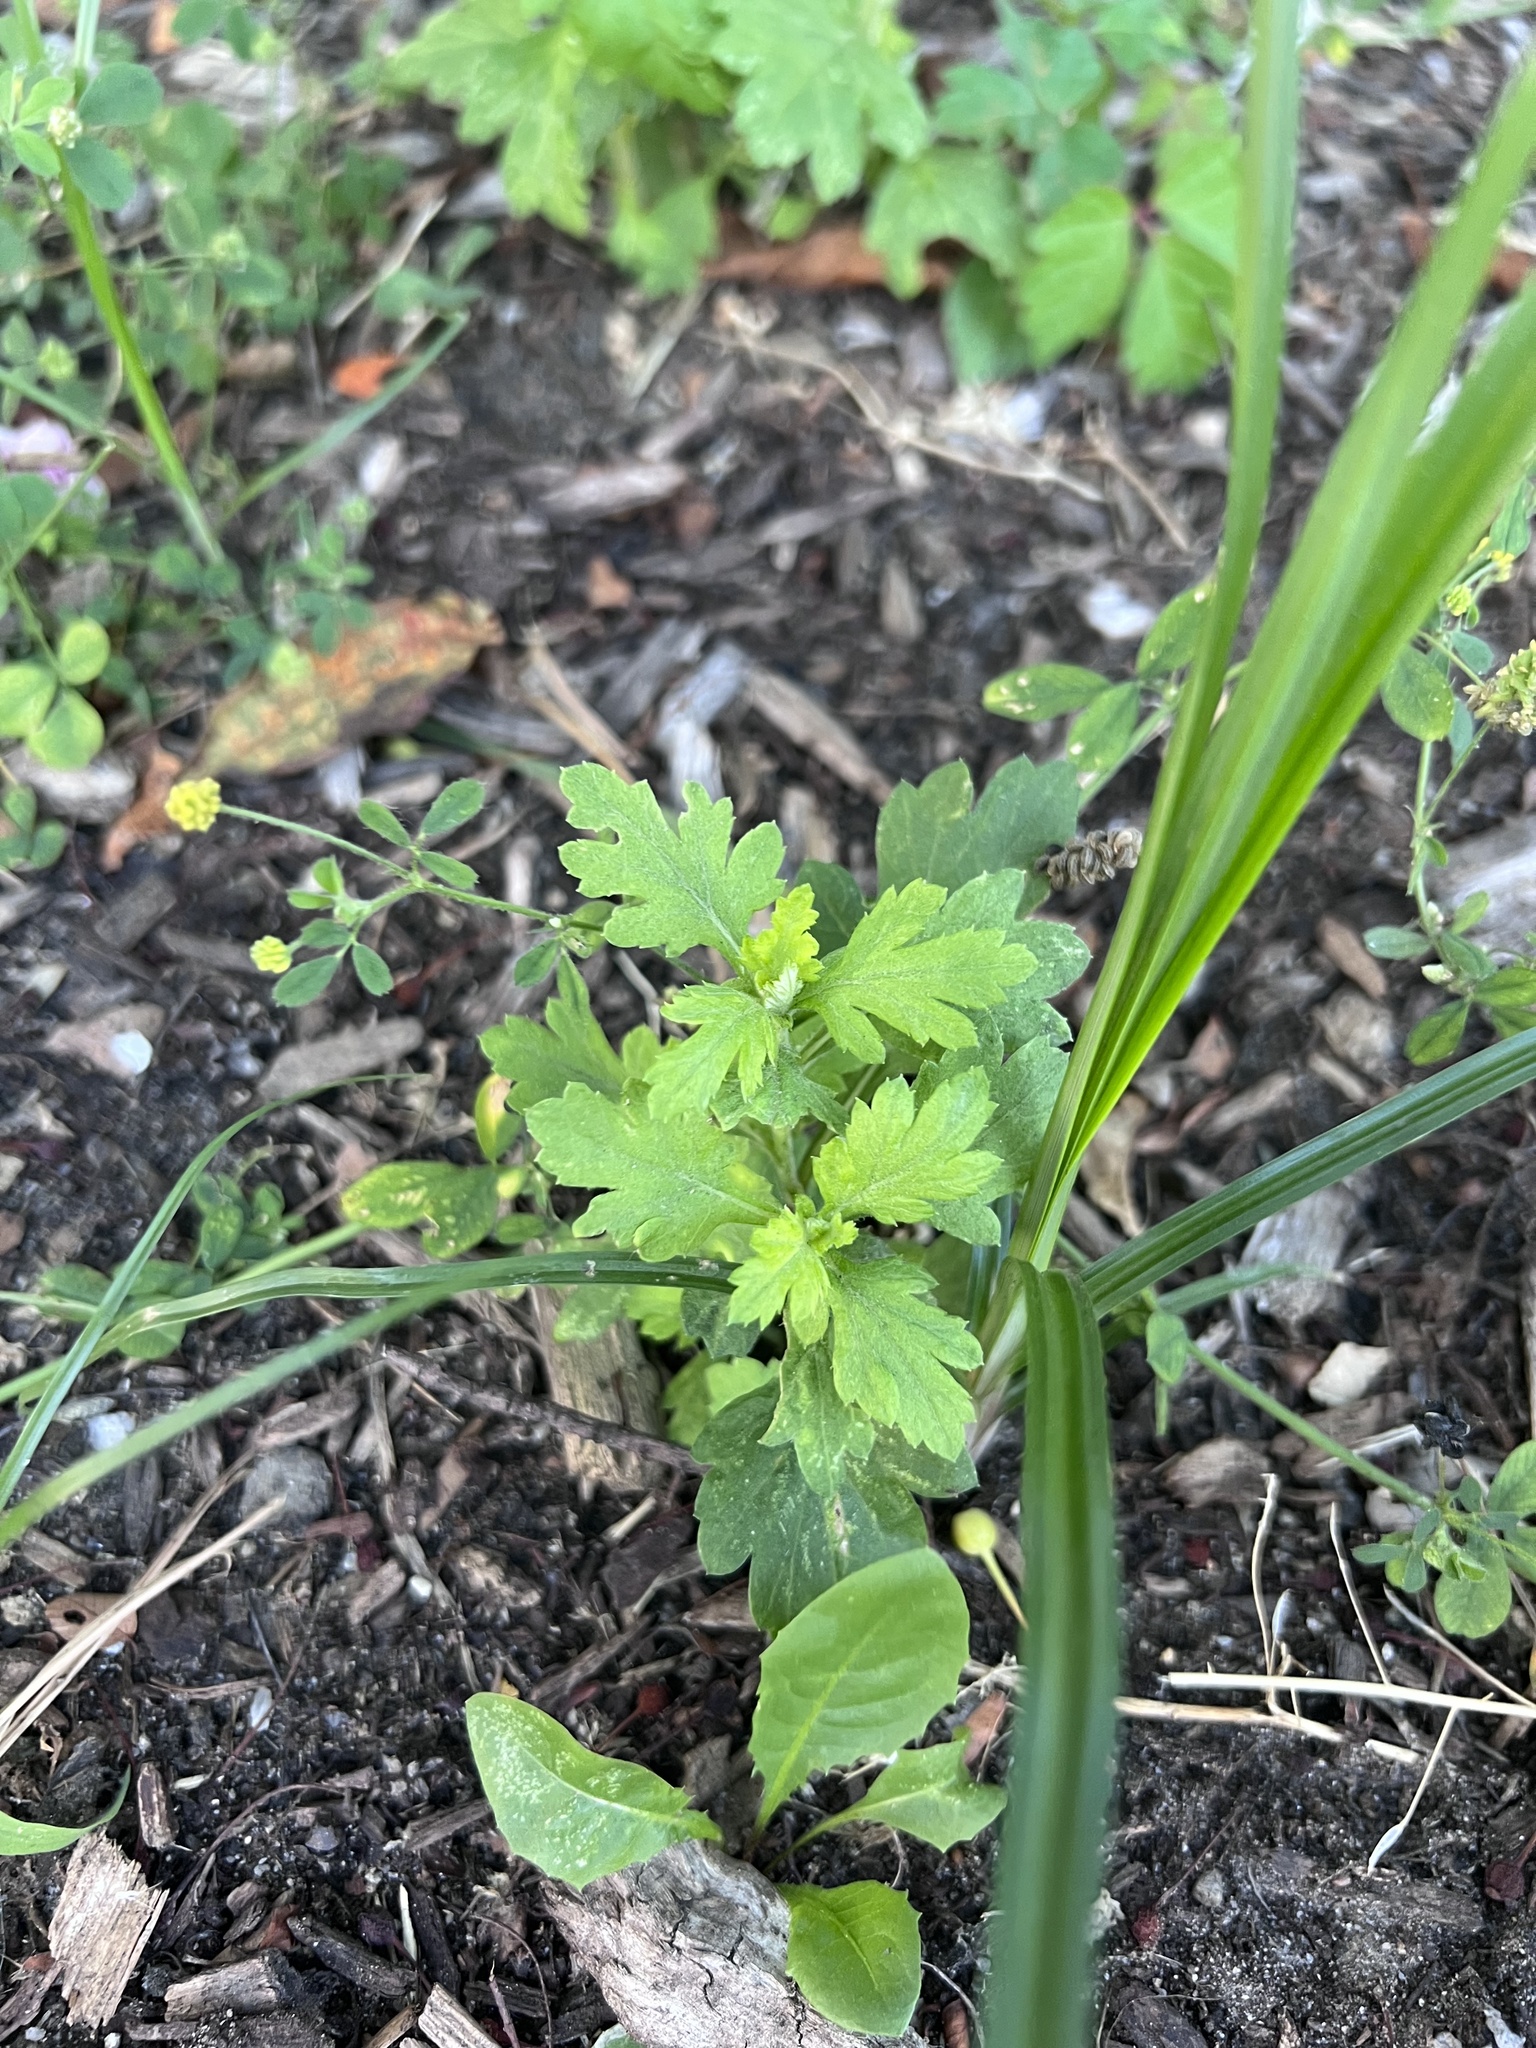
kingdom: Plantae
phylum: Tracheophyta
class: Magnoliopsida
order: Asterales
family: Asteraceae
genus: Artemisia
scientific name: Artemisia vulgaris
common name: Mugwort
